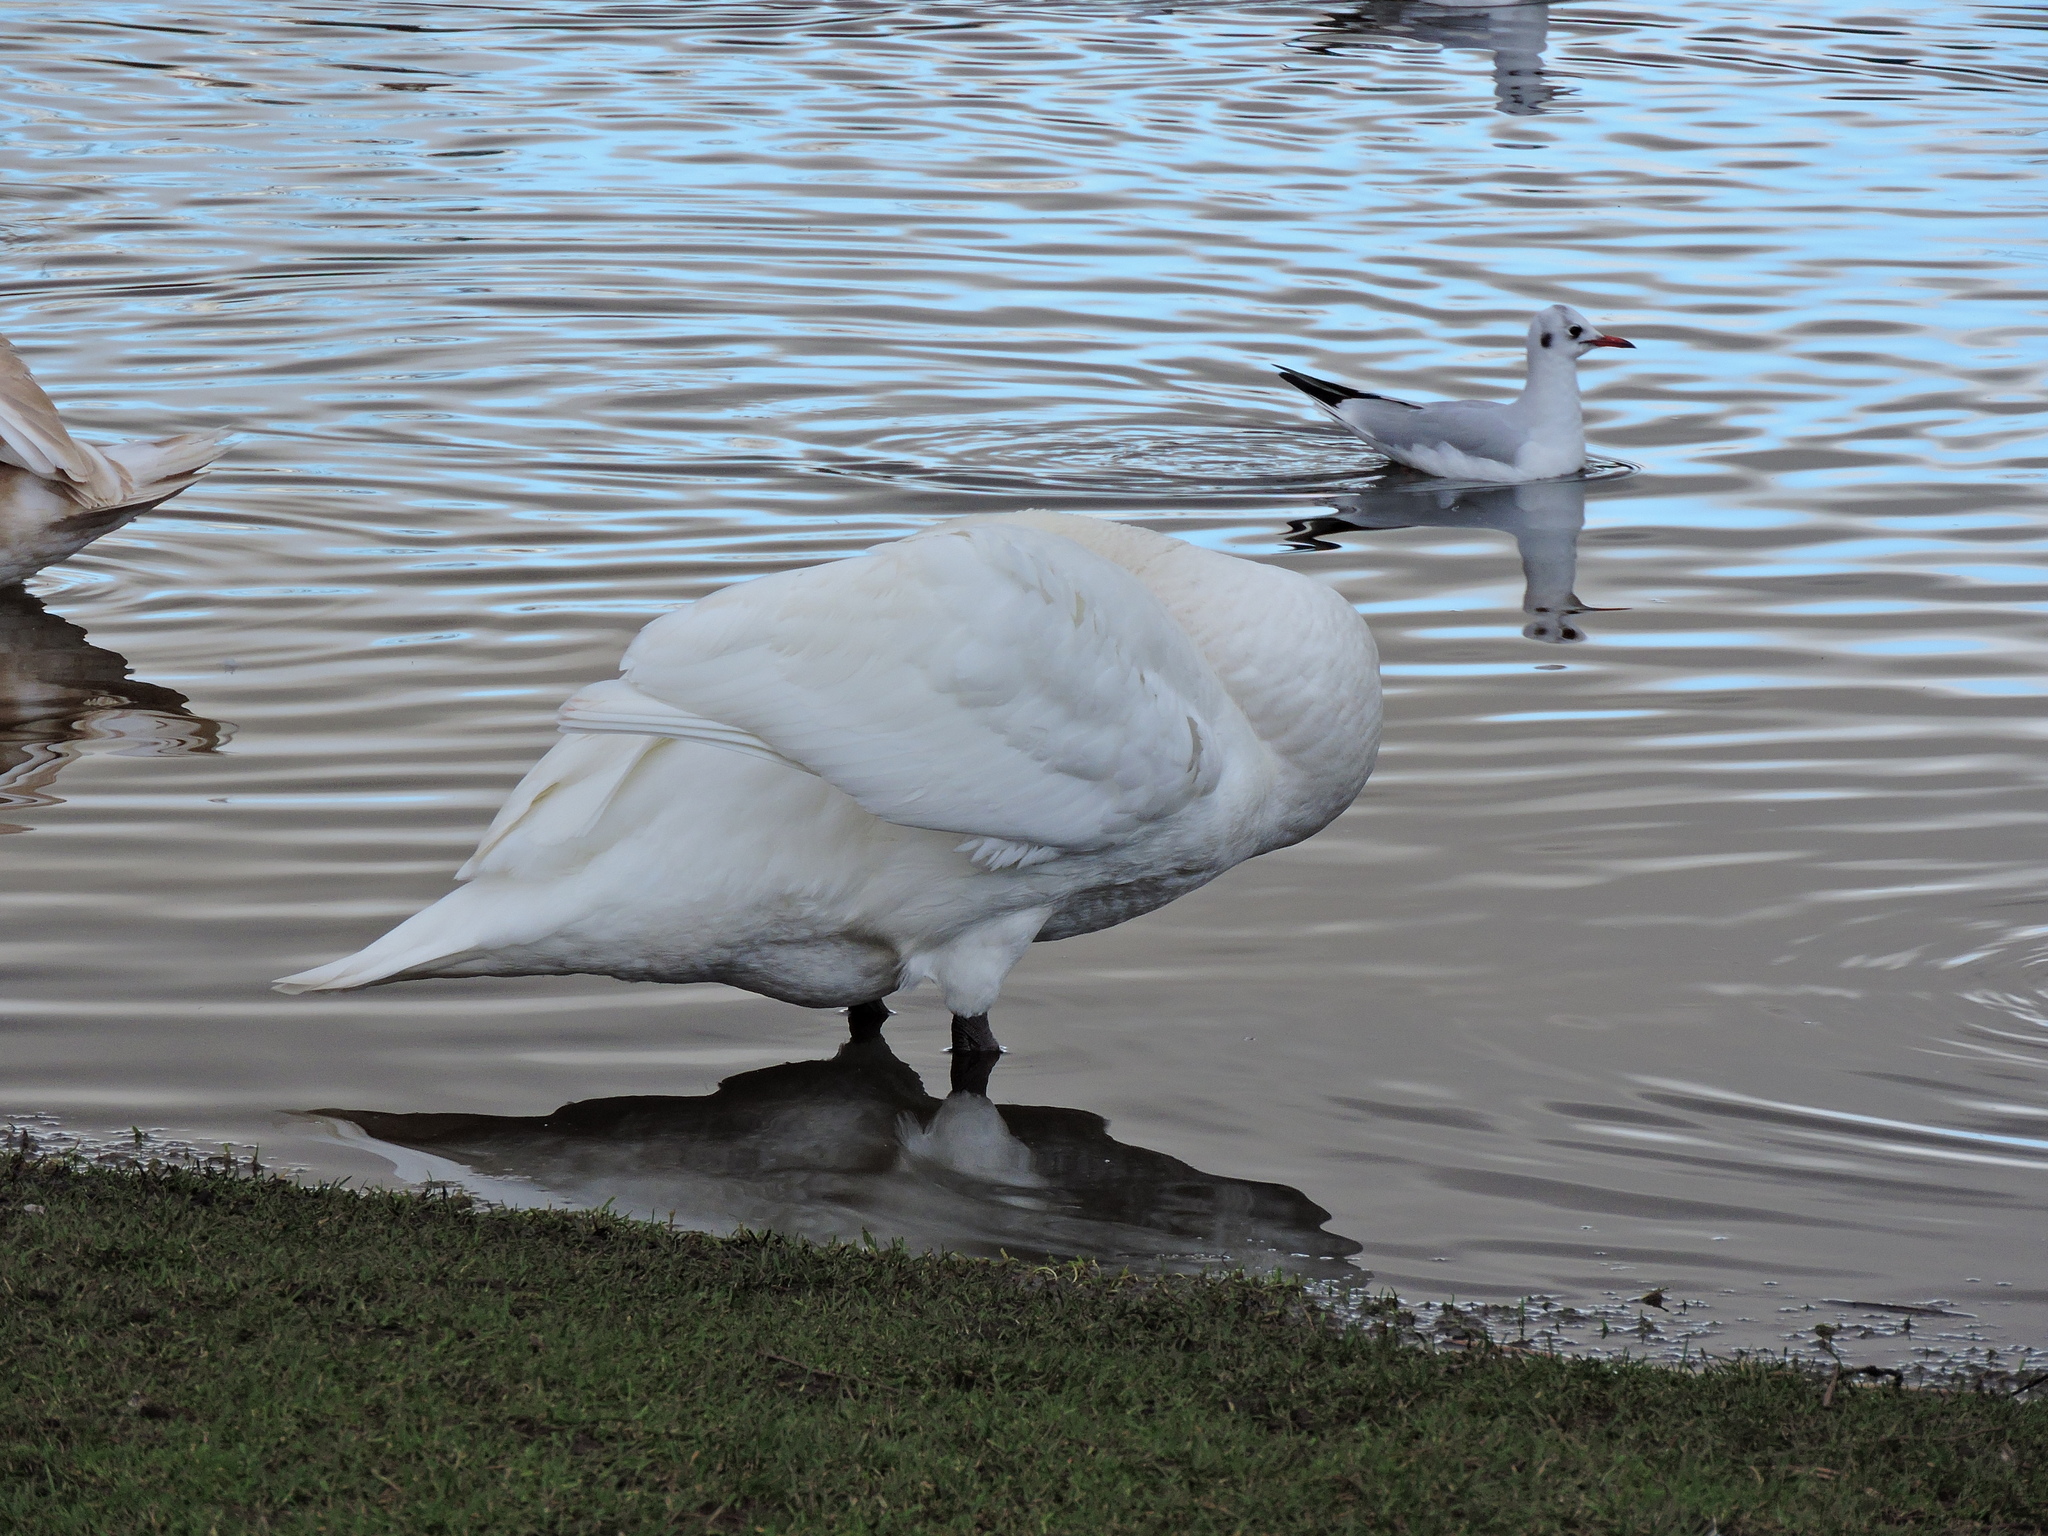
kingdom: Animalia
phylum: Chordata
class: Aves
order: Charadriiformes
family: Laridae
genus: Chroicocephalus
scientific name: Chroicocephalus ridibundus
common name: Black-headed gull
